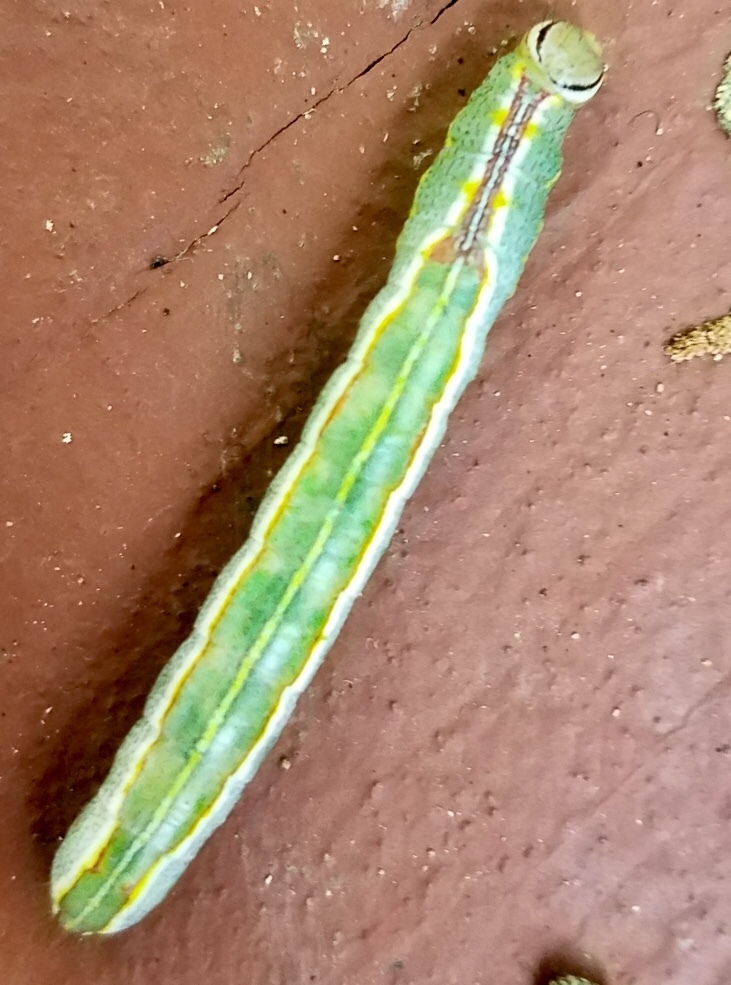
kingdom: Animalia
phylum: Arthropoda
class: Insecta
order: Lepidoptera
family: Notodontidae
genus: Lochmaeus
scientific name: Lochmaeus manteo
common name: Variable oakleaf caterpillar moth
